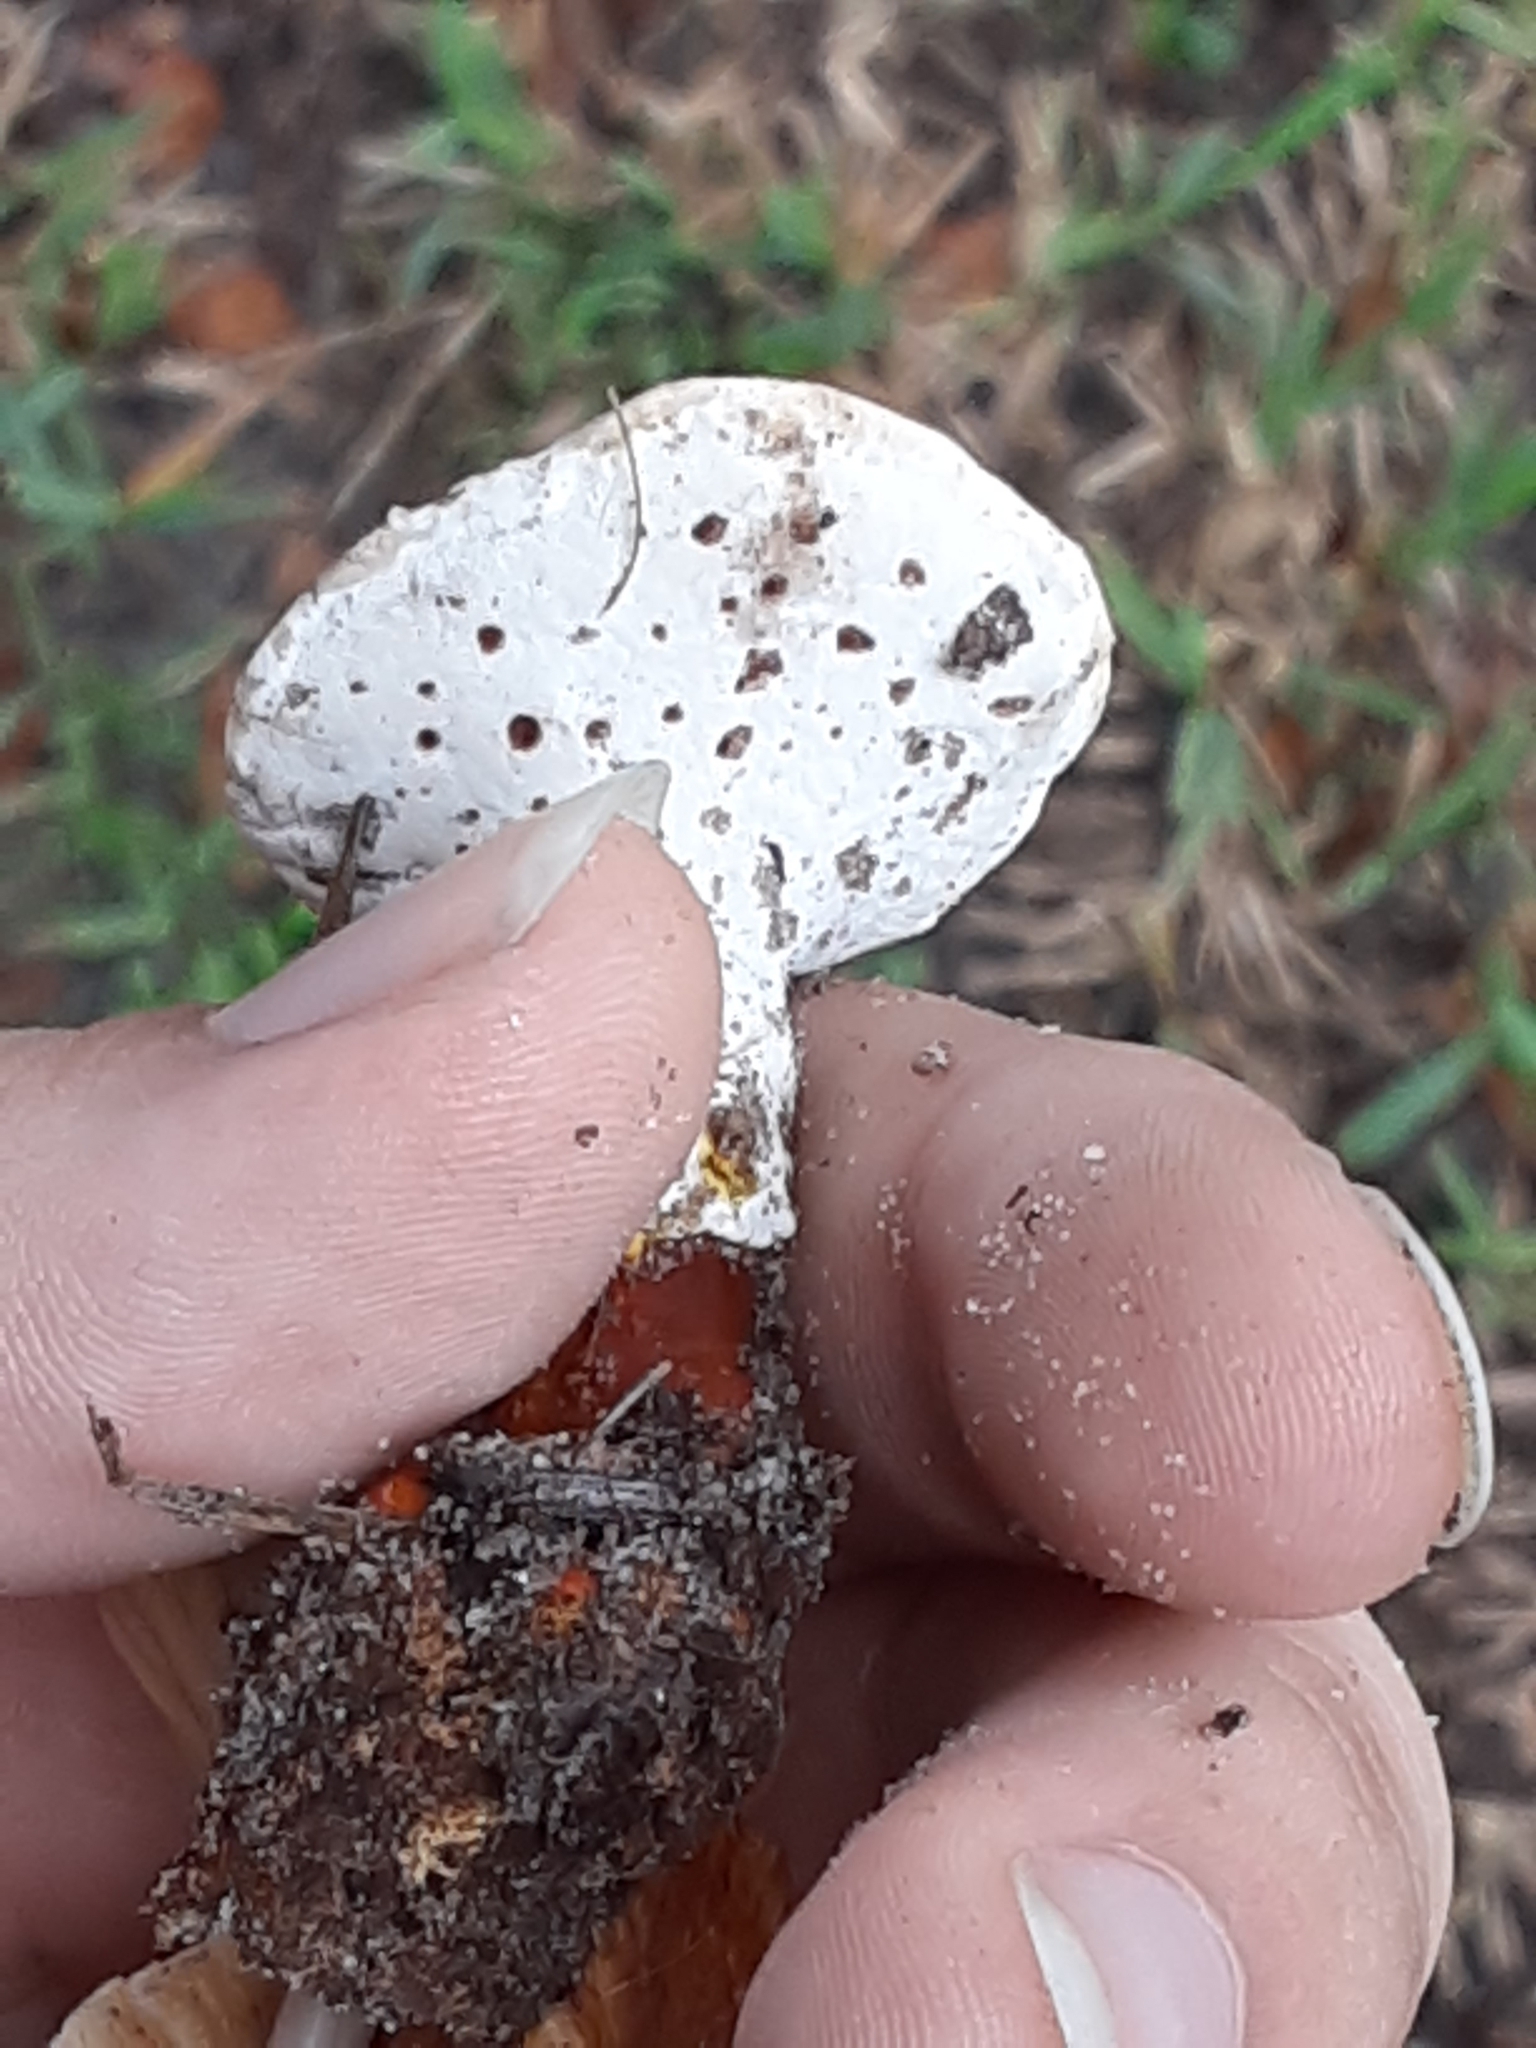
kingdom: Fungi
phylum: Basidiomycota
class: Agaricomycetes
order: Polyporales
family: Polyporaceae
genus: Ganoderma
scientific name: Ganoderma curtisii
